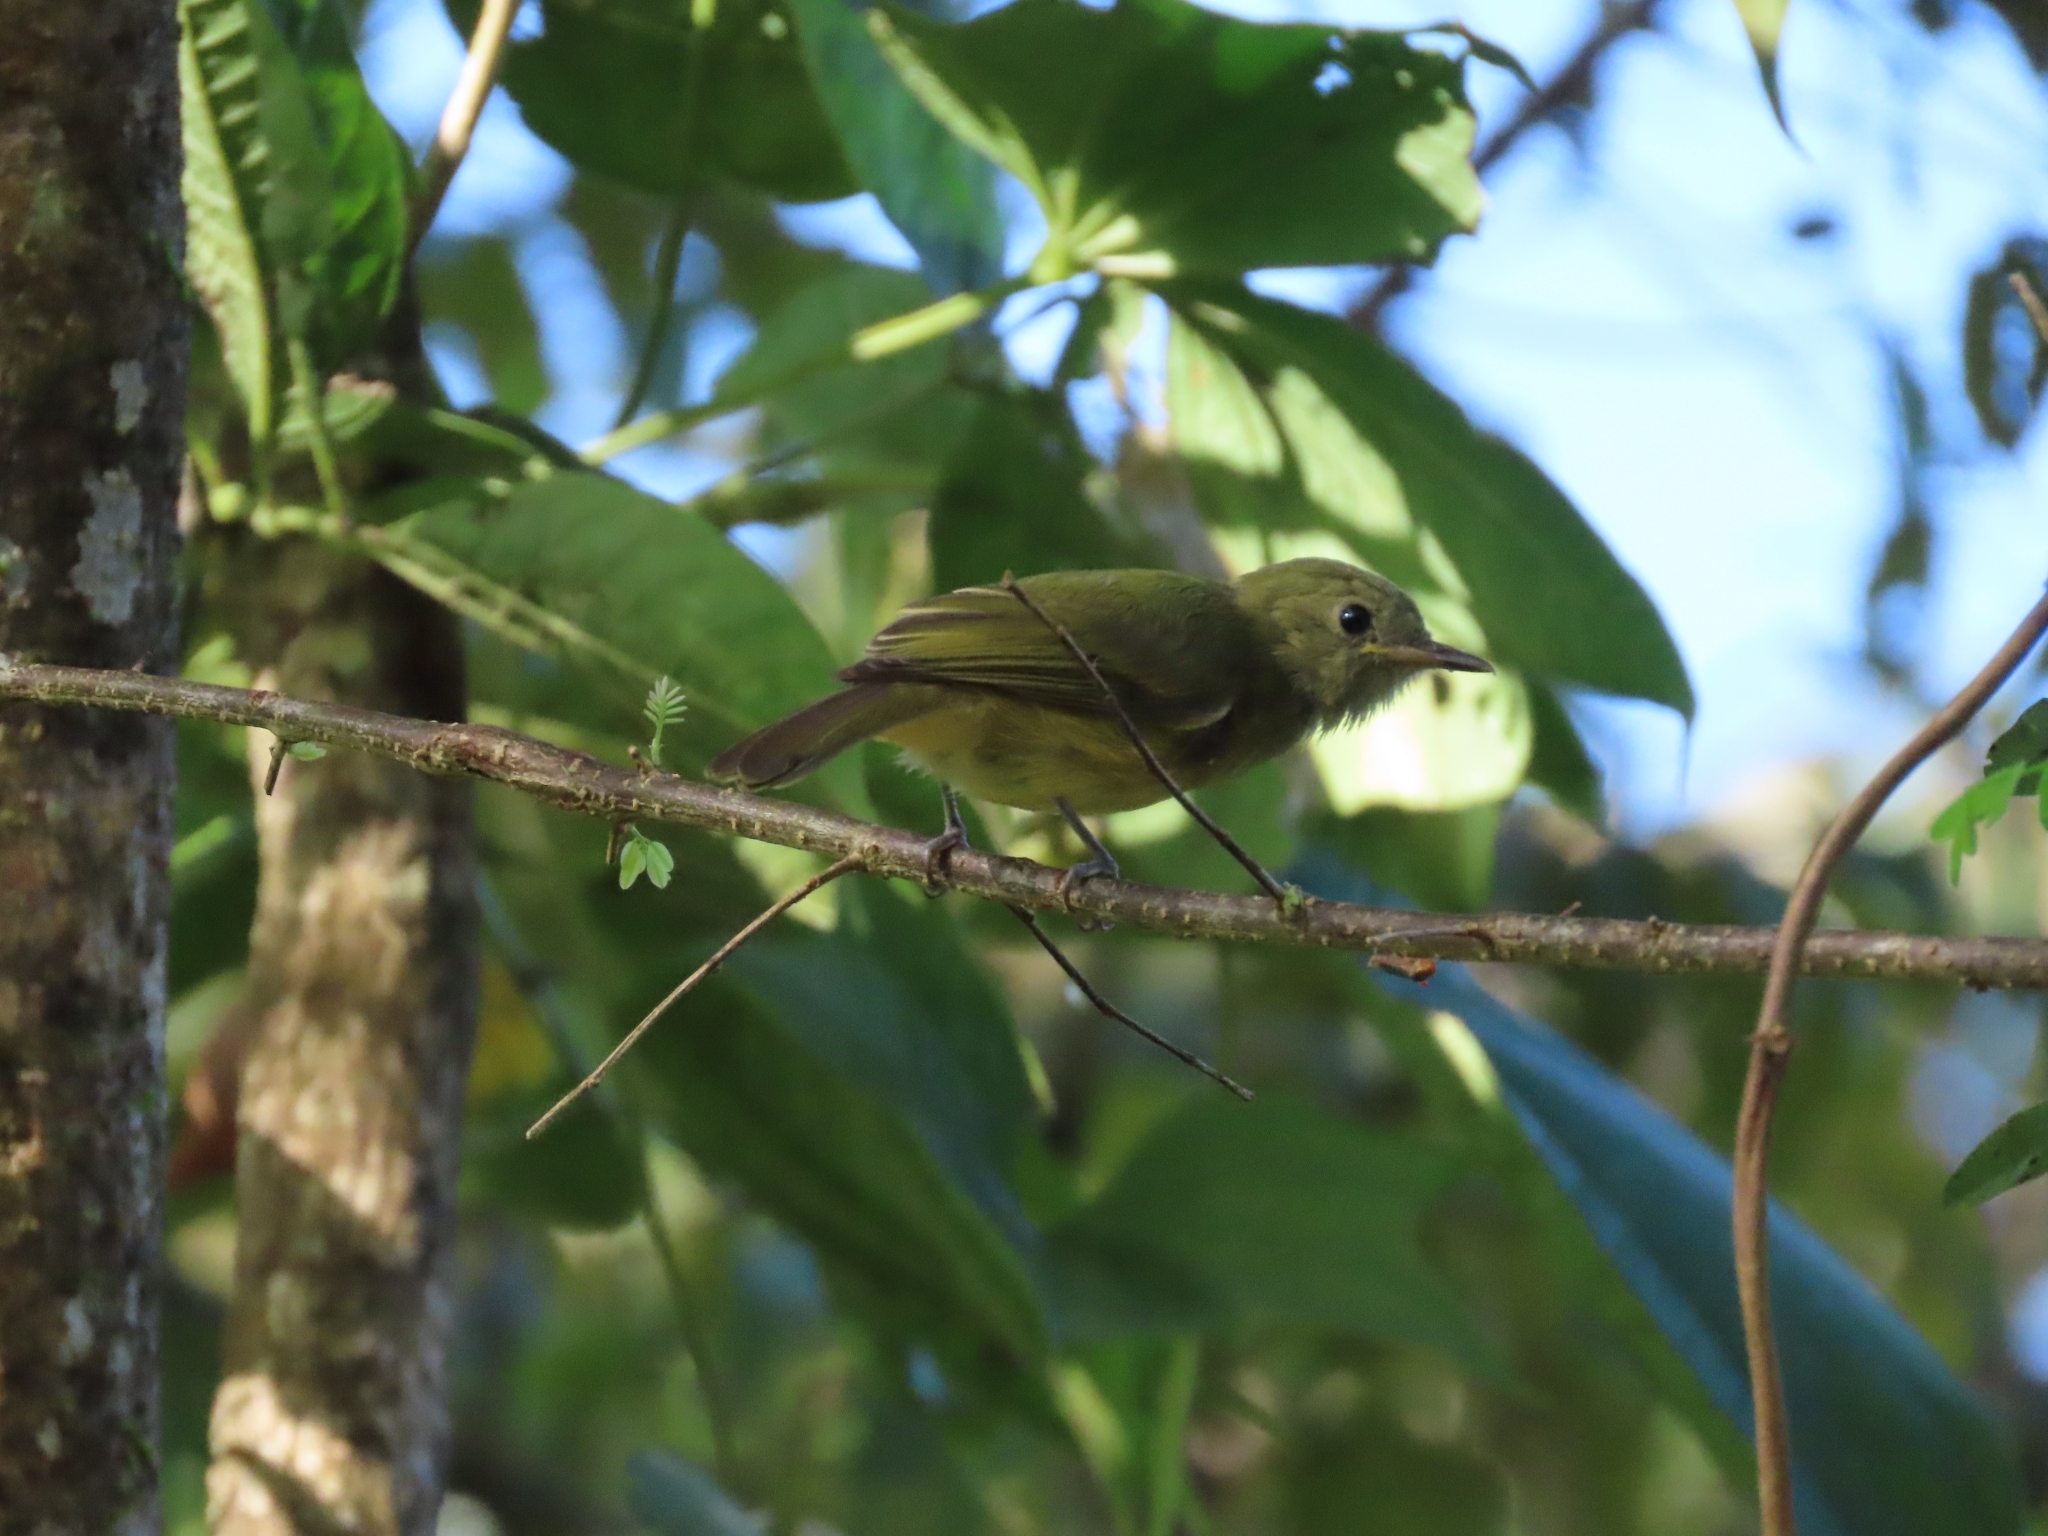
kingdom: Animalia
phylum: Chordata
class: Aves
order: Passeriformes
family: Tyrannidae
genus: Mionectes
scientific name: Mionectes oleagineus
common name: Ochre-bellied flycatcher
